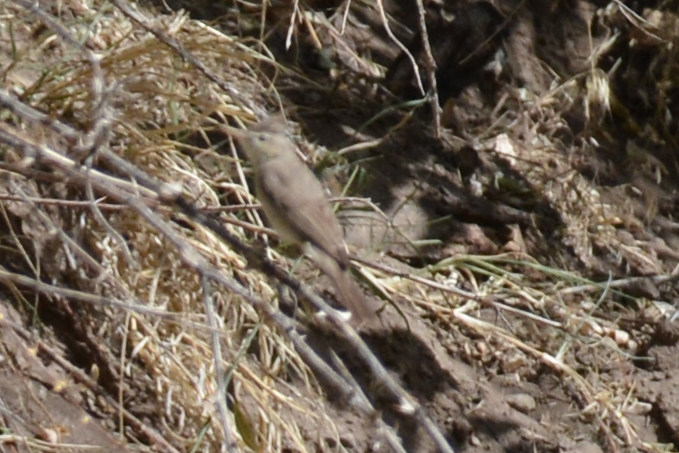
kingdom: Animalia
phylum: Chordata
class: Aves
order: Passeriformes
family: Acrocephalidae
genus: Hippolais
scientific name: Hippolais languida
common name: Upcher's warbler
